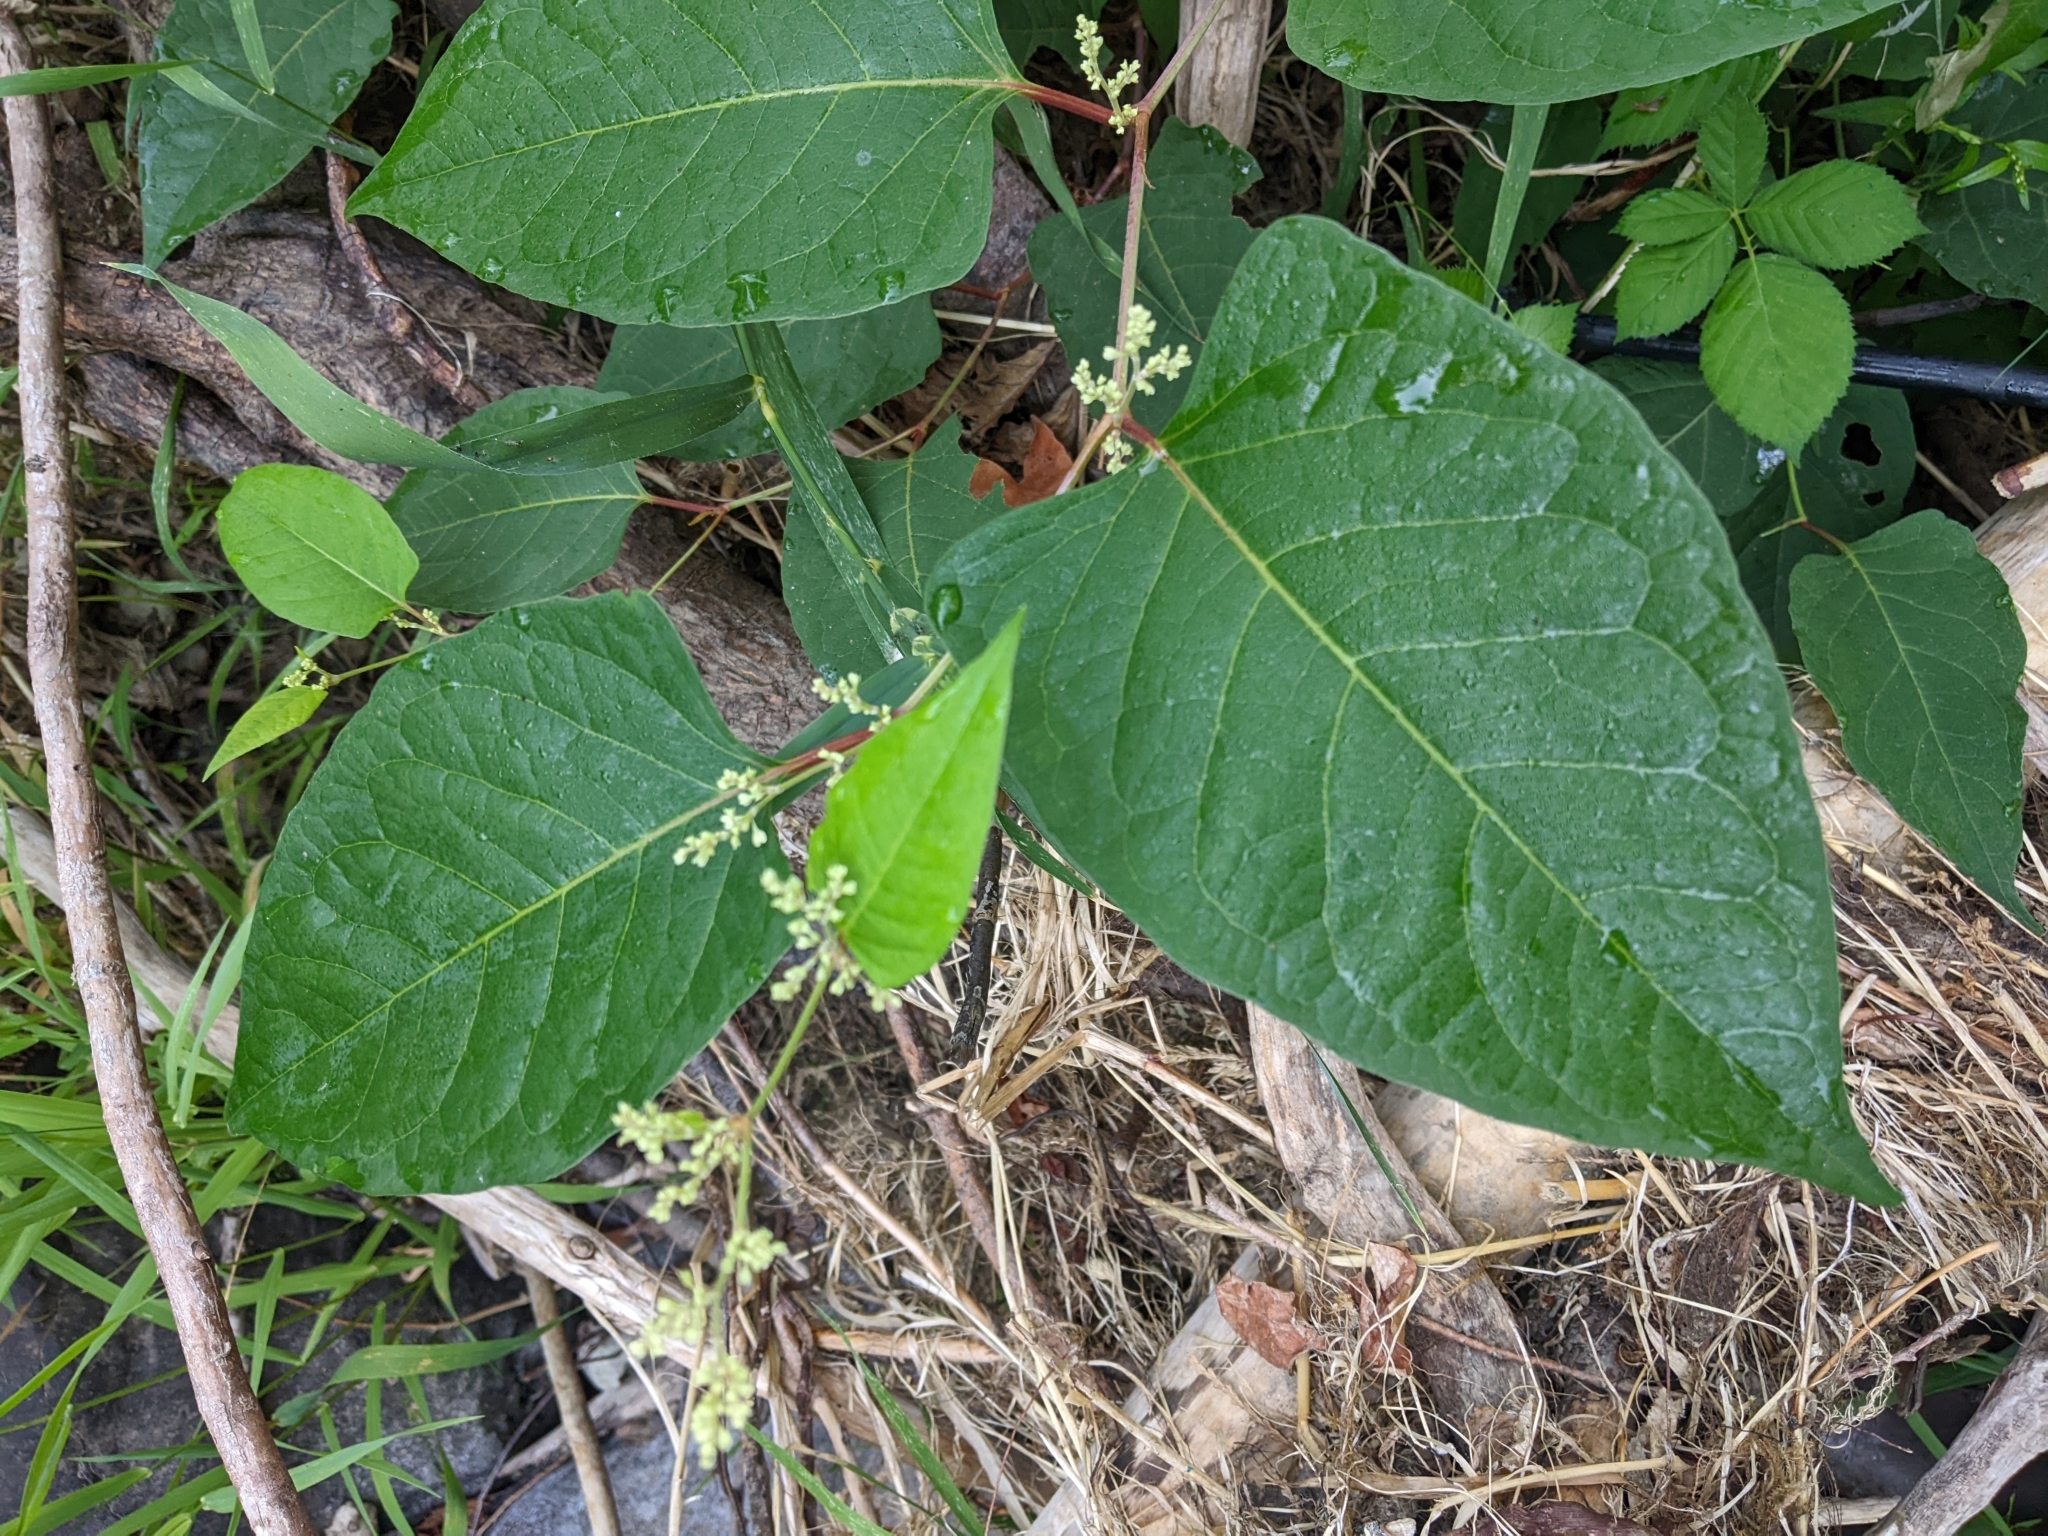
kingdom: Plantae
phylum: Tracheophyta
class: Magnoliopsida
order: Caryophyllales
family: Polygonaceae
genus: Reynoutria
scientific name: Reynoutria bohemica
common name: Bohemian knotweed
